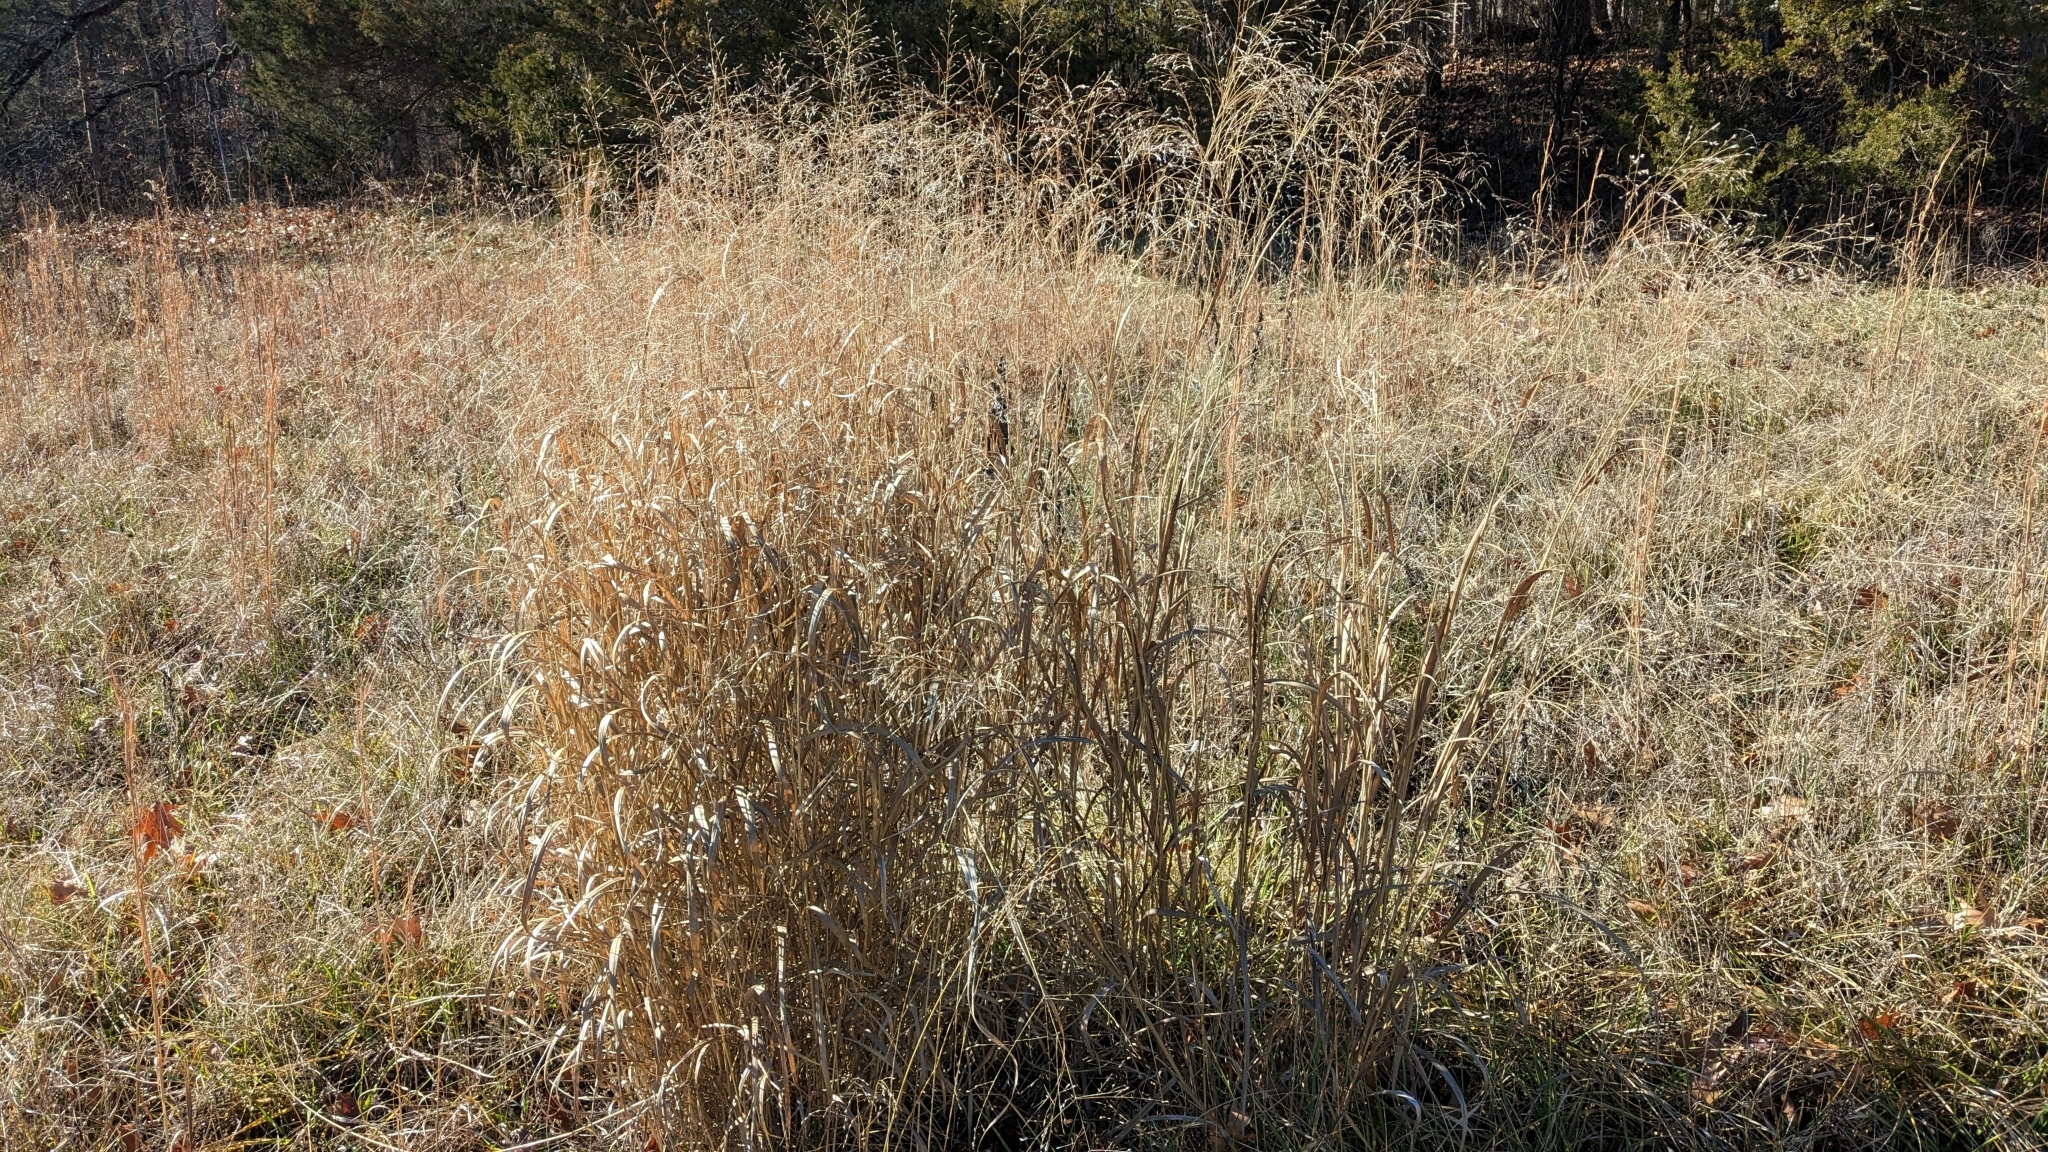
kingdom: Plantae
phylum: Tracheophyta
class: Liliopsida
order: Poales
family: Poaceae
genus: Panicum
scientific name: Panicum virgatum
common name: Switchgrass
